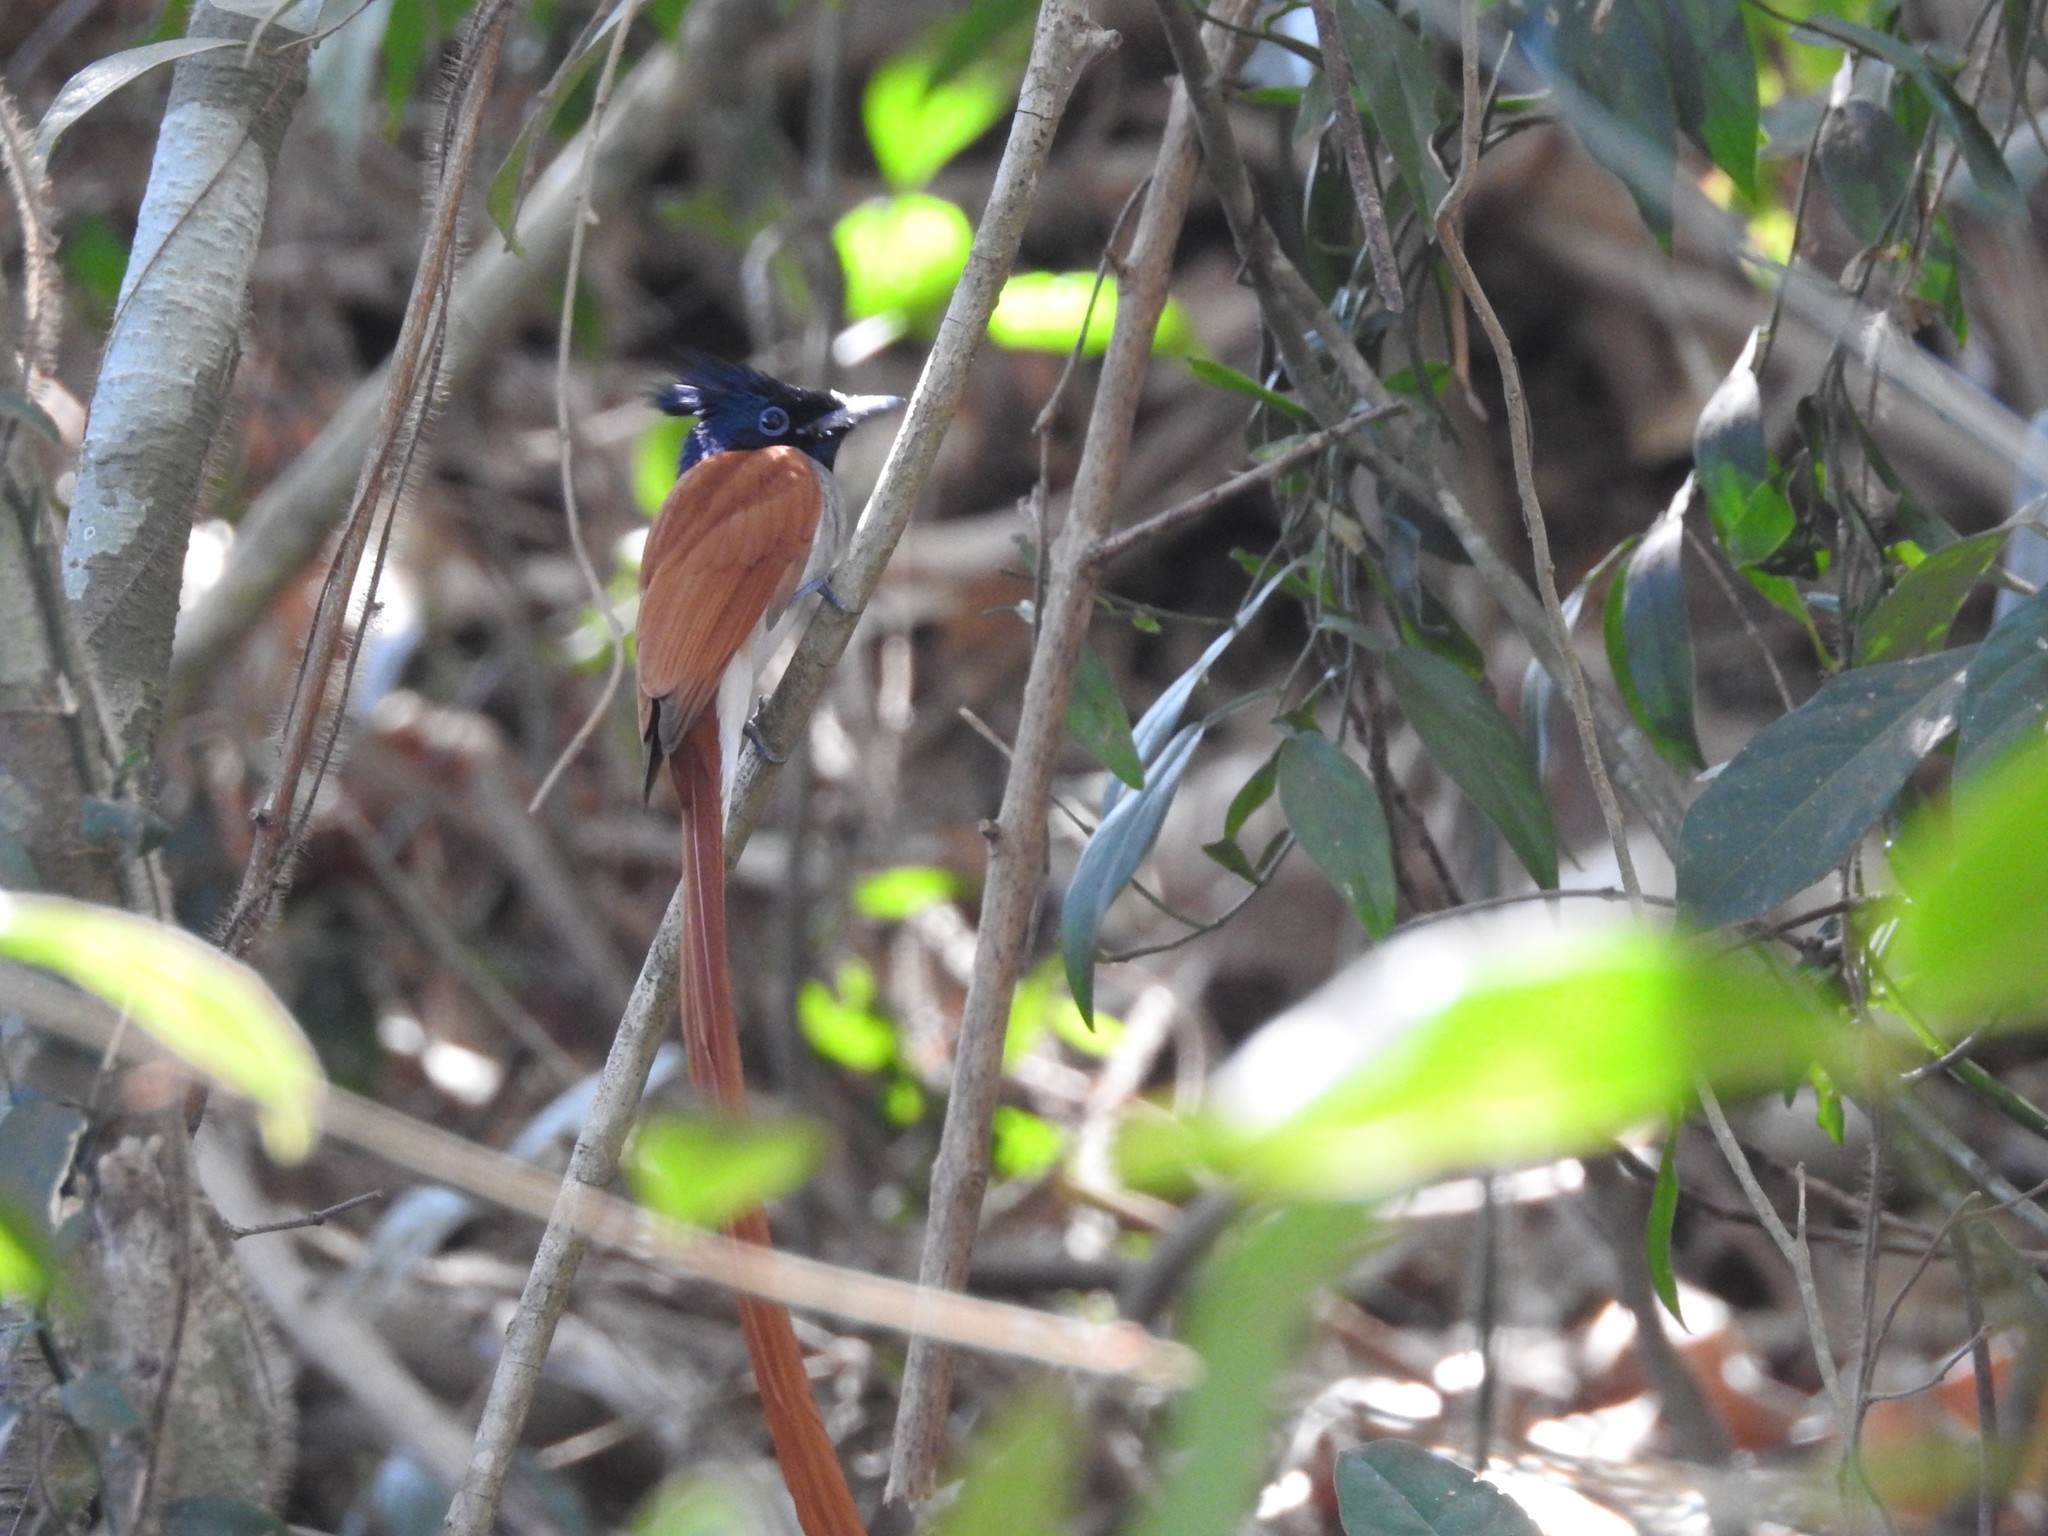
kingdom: Animalia
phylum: Chordata
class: Aves
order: Passeriformes
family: Monarchidae
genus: Terpsiphone
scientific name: Terpsiphone paradisi
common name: Indian paradise flycatcher
